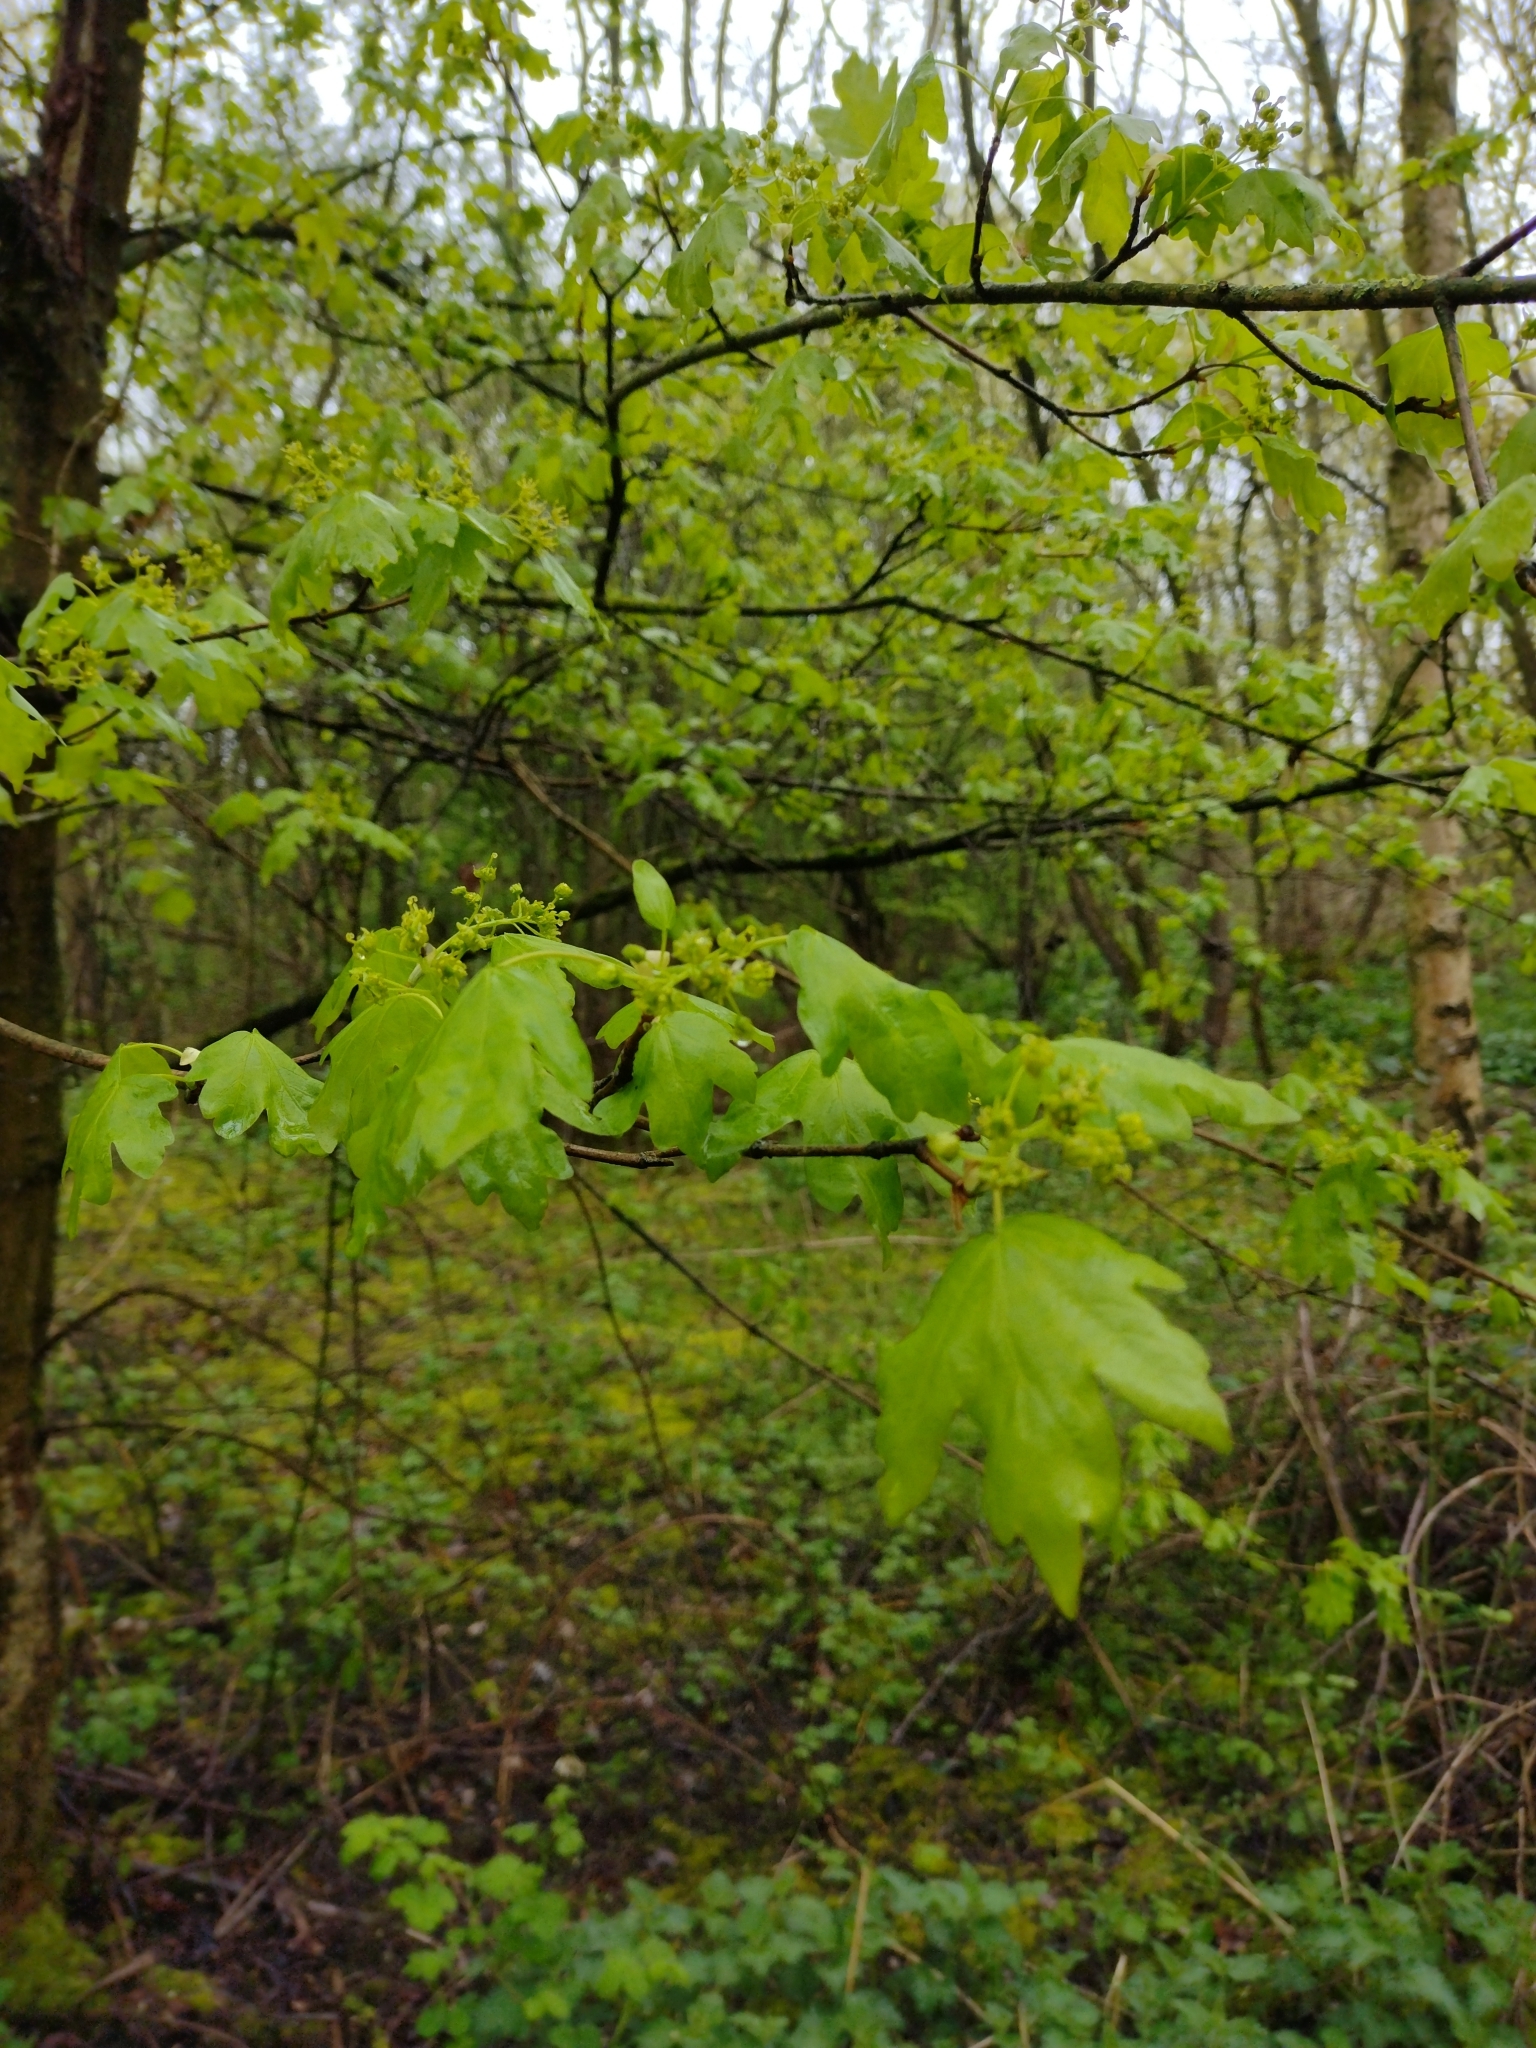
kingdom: Plantae
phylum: Tracheophyta
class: Magnoliopsida
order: Sapindales
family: Sapindaceae
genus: Acer
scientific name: Acer campestre
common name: Field maple
